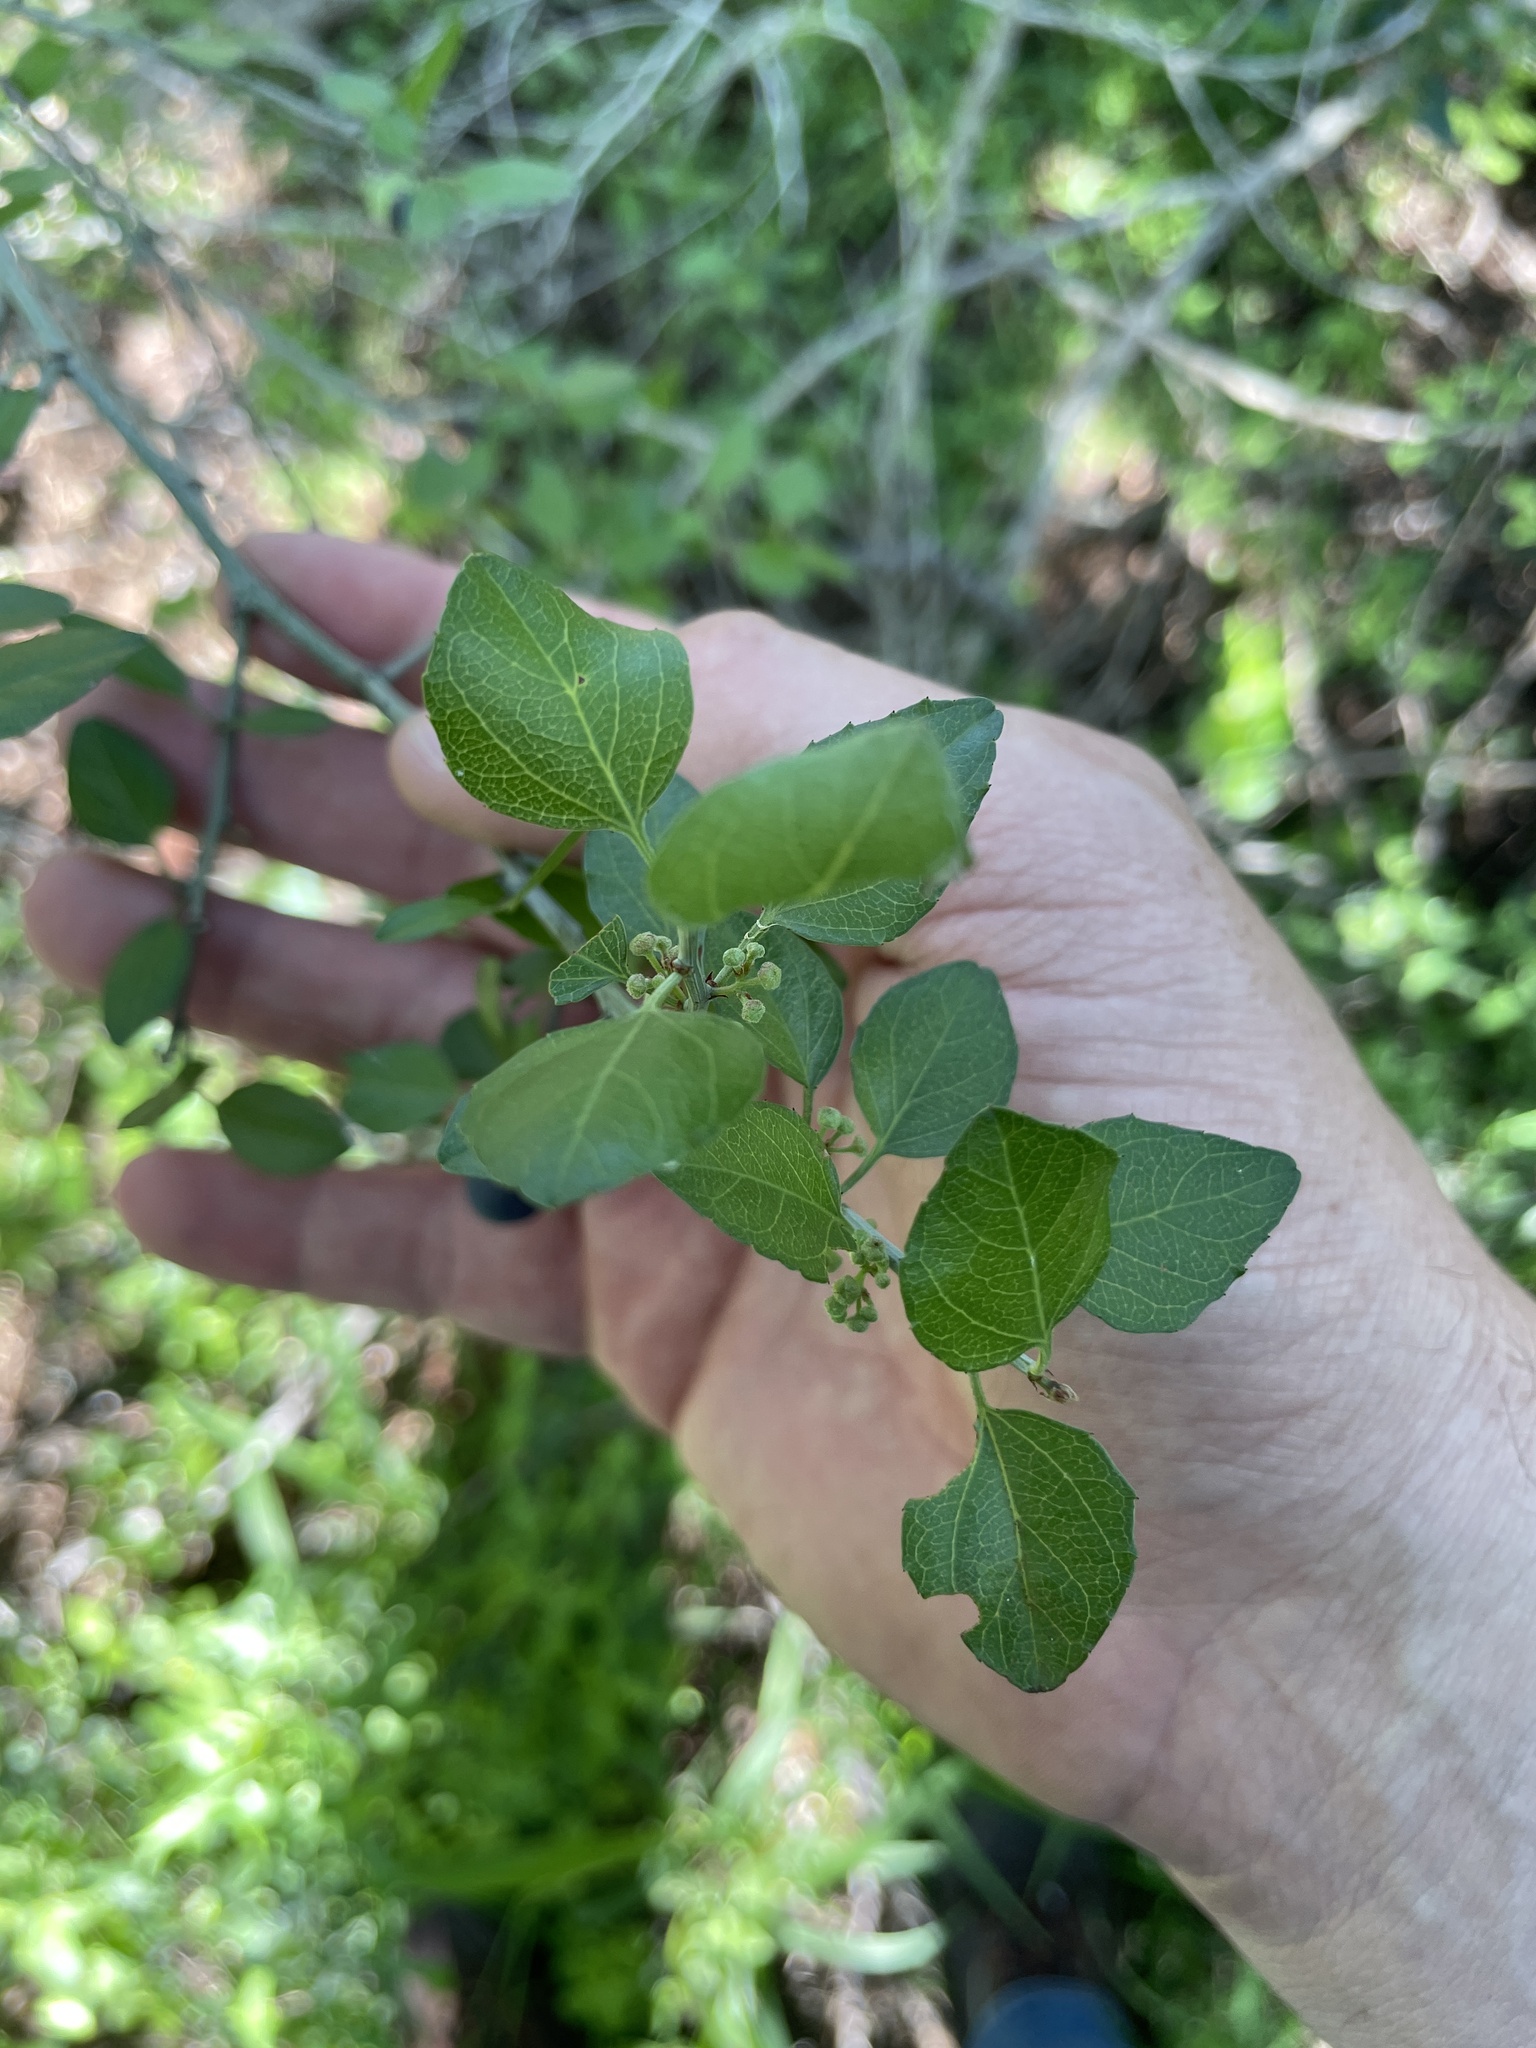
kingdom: Plantae
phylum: Tracheophyta
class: Magnoliopsida
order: Rosales
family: Rhamnaceae
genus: Sarcomphalus
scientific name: Sarcomphalus obtusifolius
